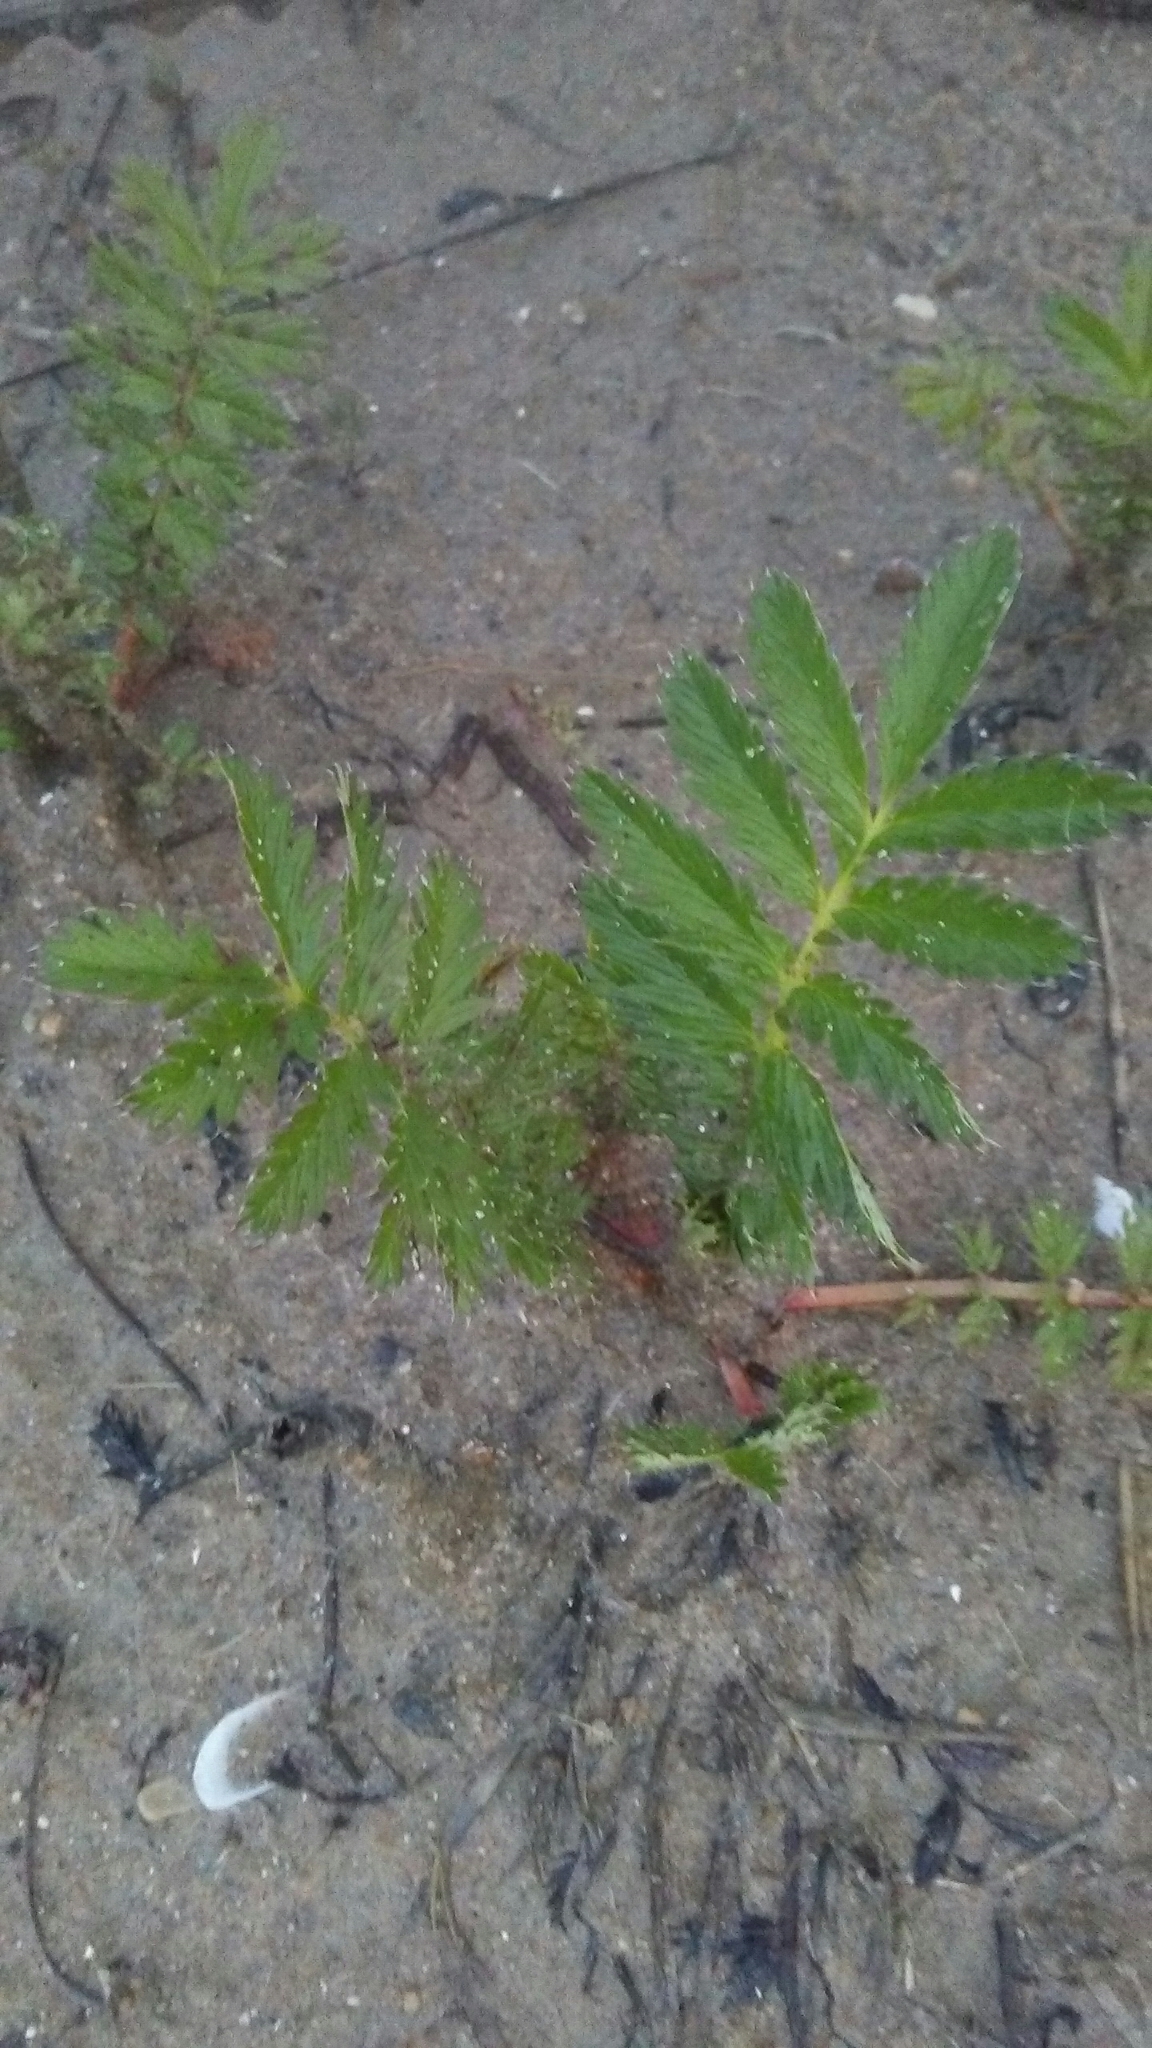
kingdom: Plantae
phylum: Tracheophyta
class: Magnoliopsida
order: Rosales
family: Rosaceae
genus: Argentina
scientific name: Argentina anserina
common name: Common silverweed
